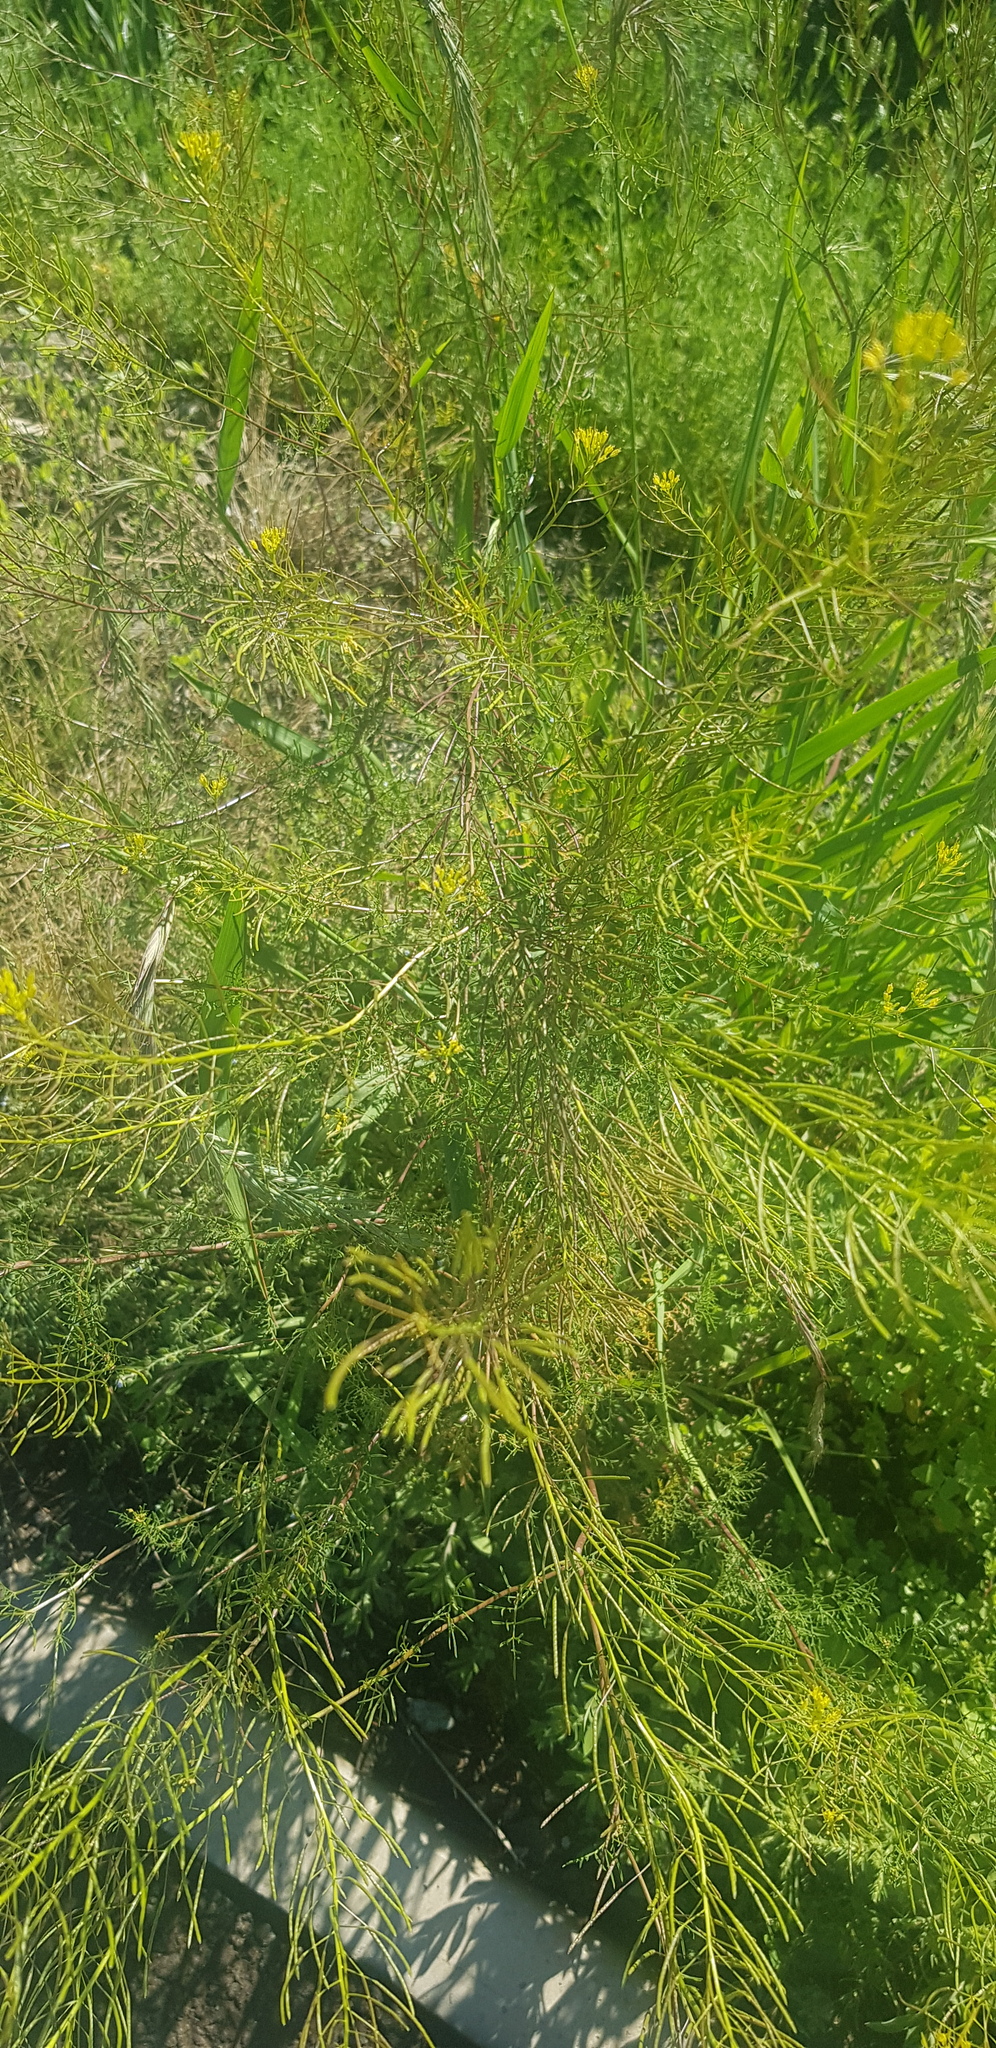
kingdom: Plantae
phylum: Tracheophyta
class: Magnoliopsida
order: Brassicales
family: Brassicaceae
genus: Descurainia
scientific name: Descurainia sophia
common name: Flixweed
